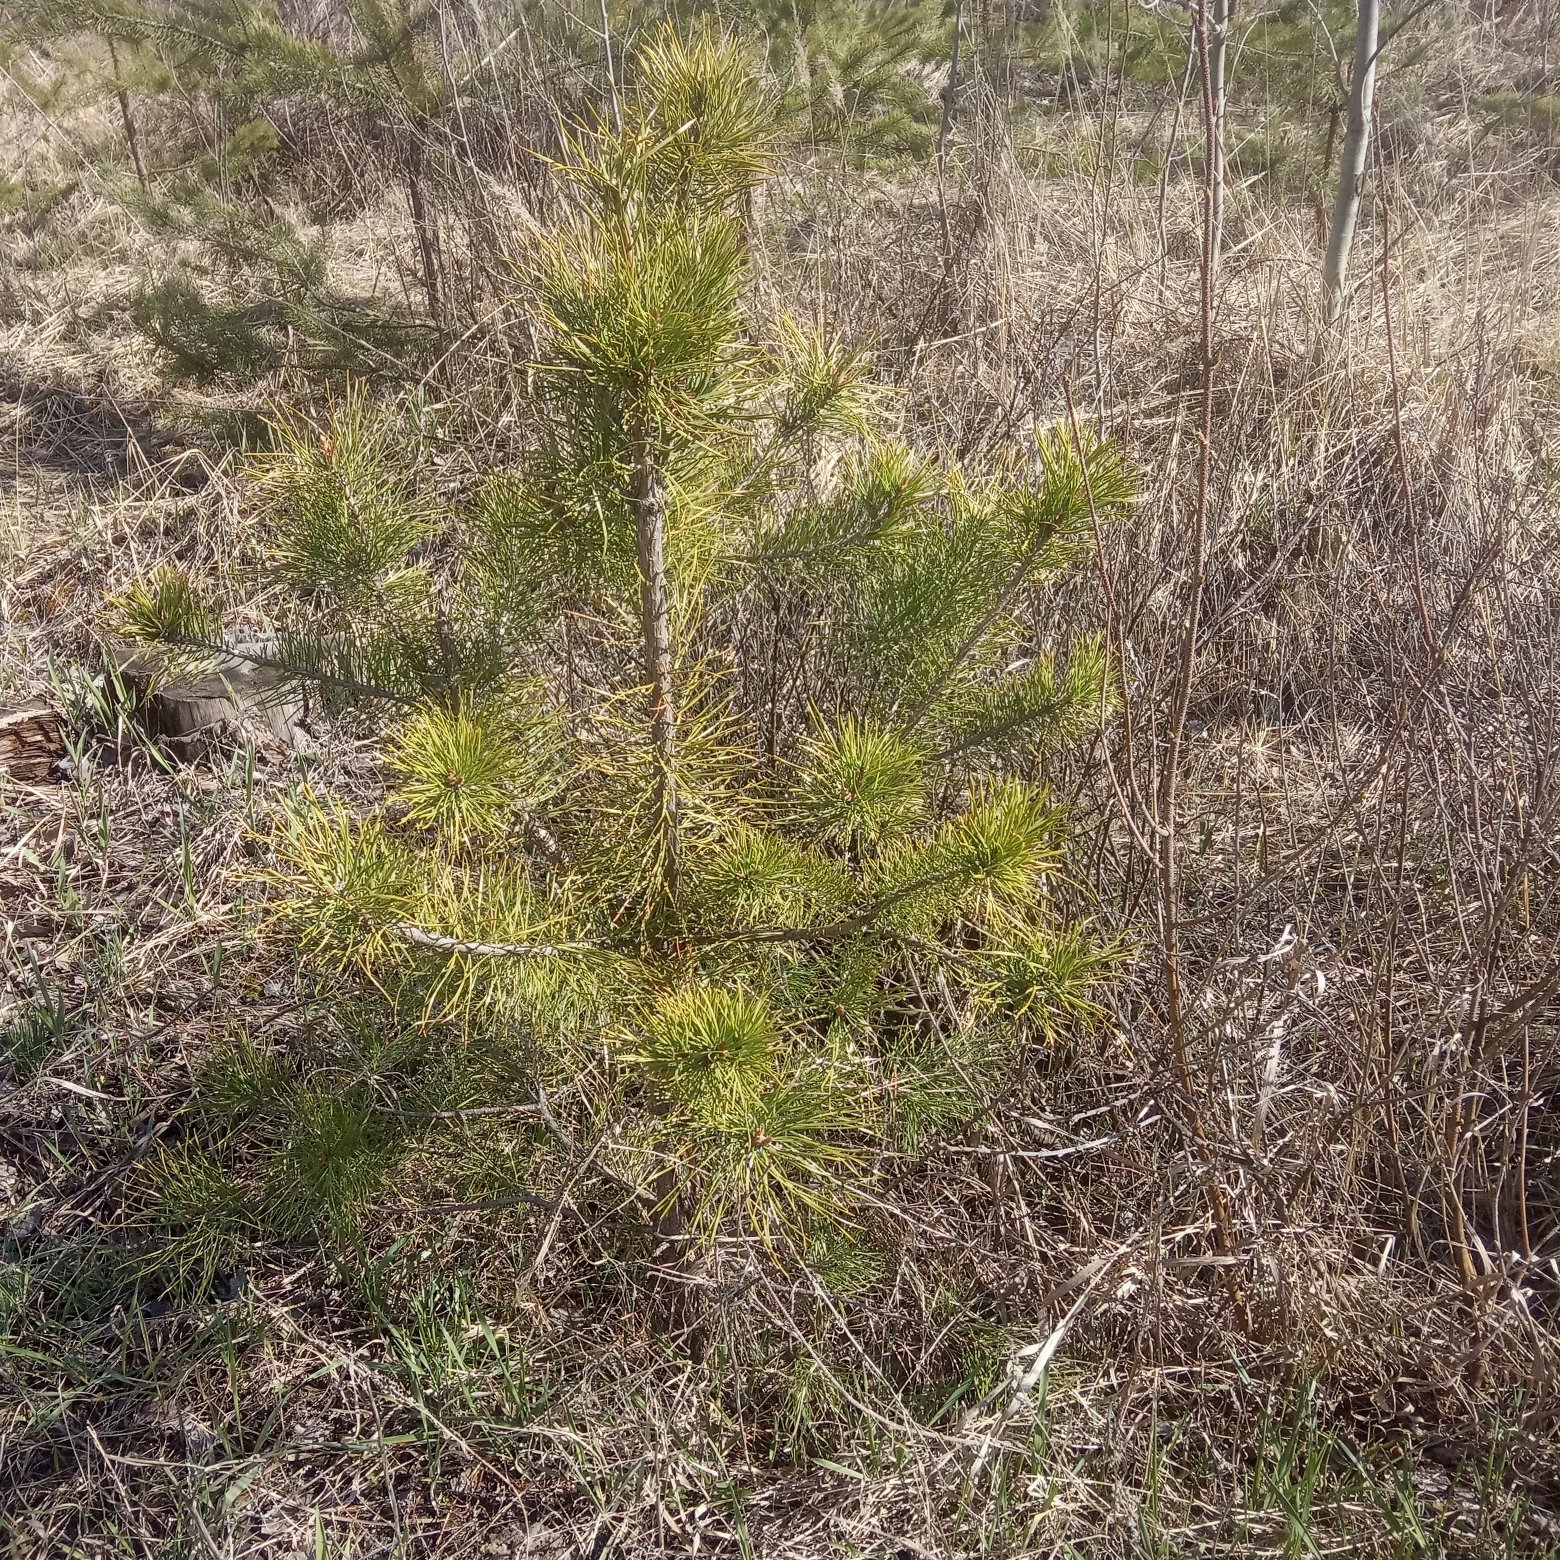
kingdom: Plantae
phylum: Tracheophyta
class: Pinopsida
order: Pinales
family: Pinaceae
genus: Pinus
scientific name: Pinus sylvestris
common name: Scots pine
